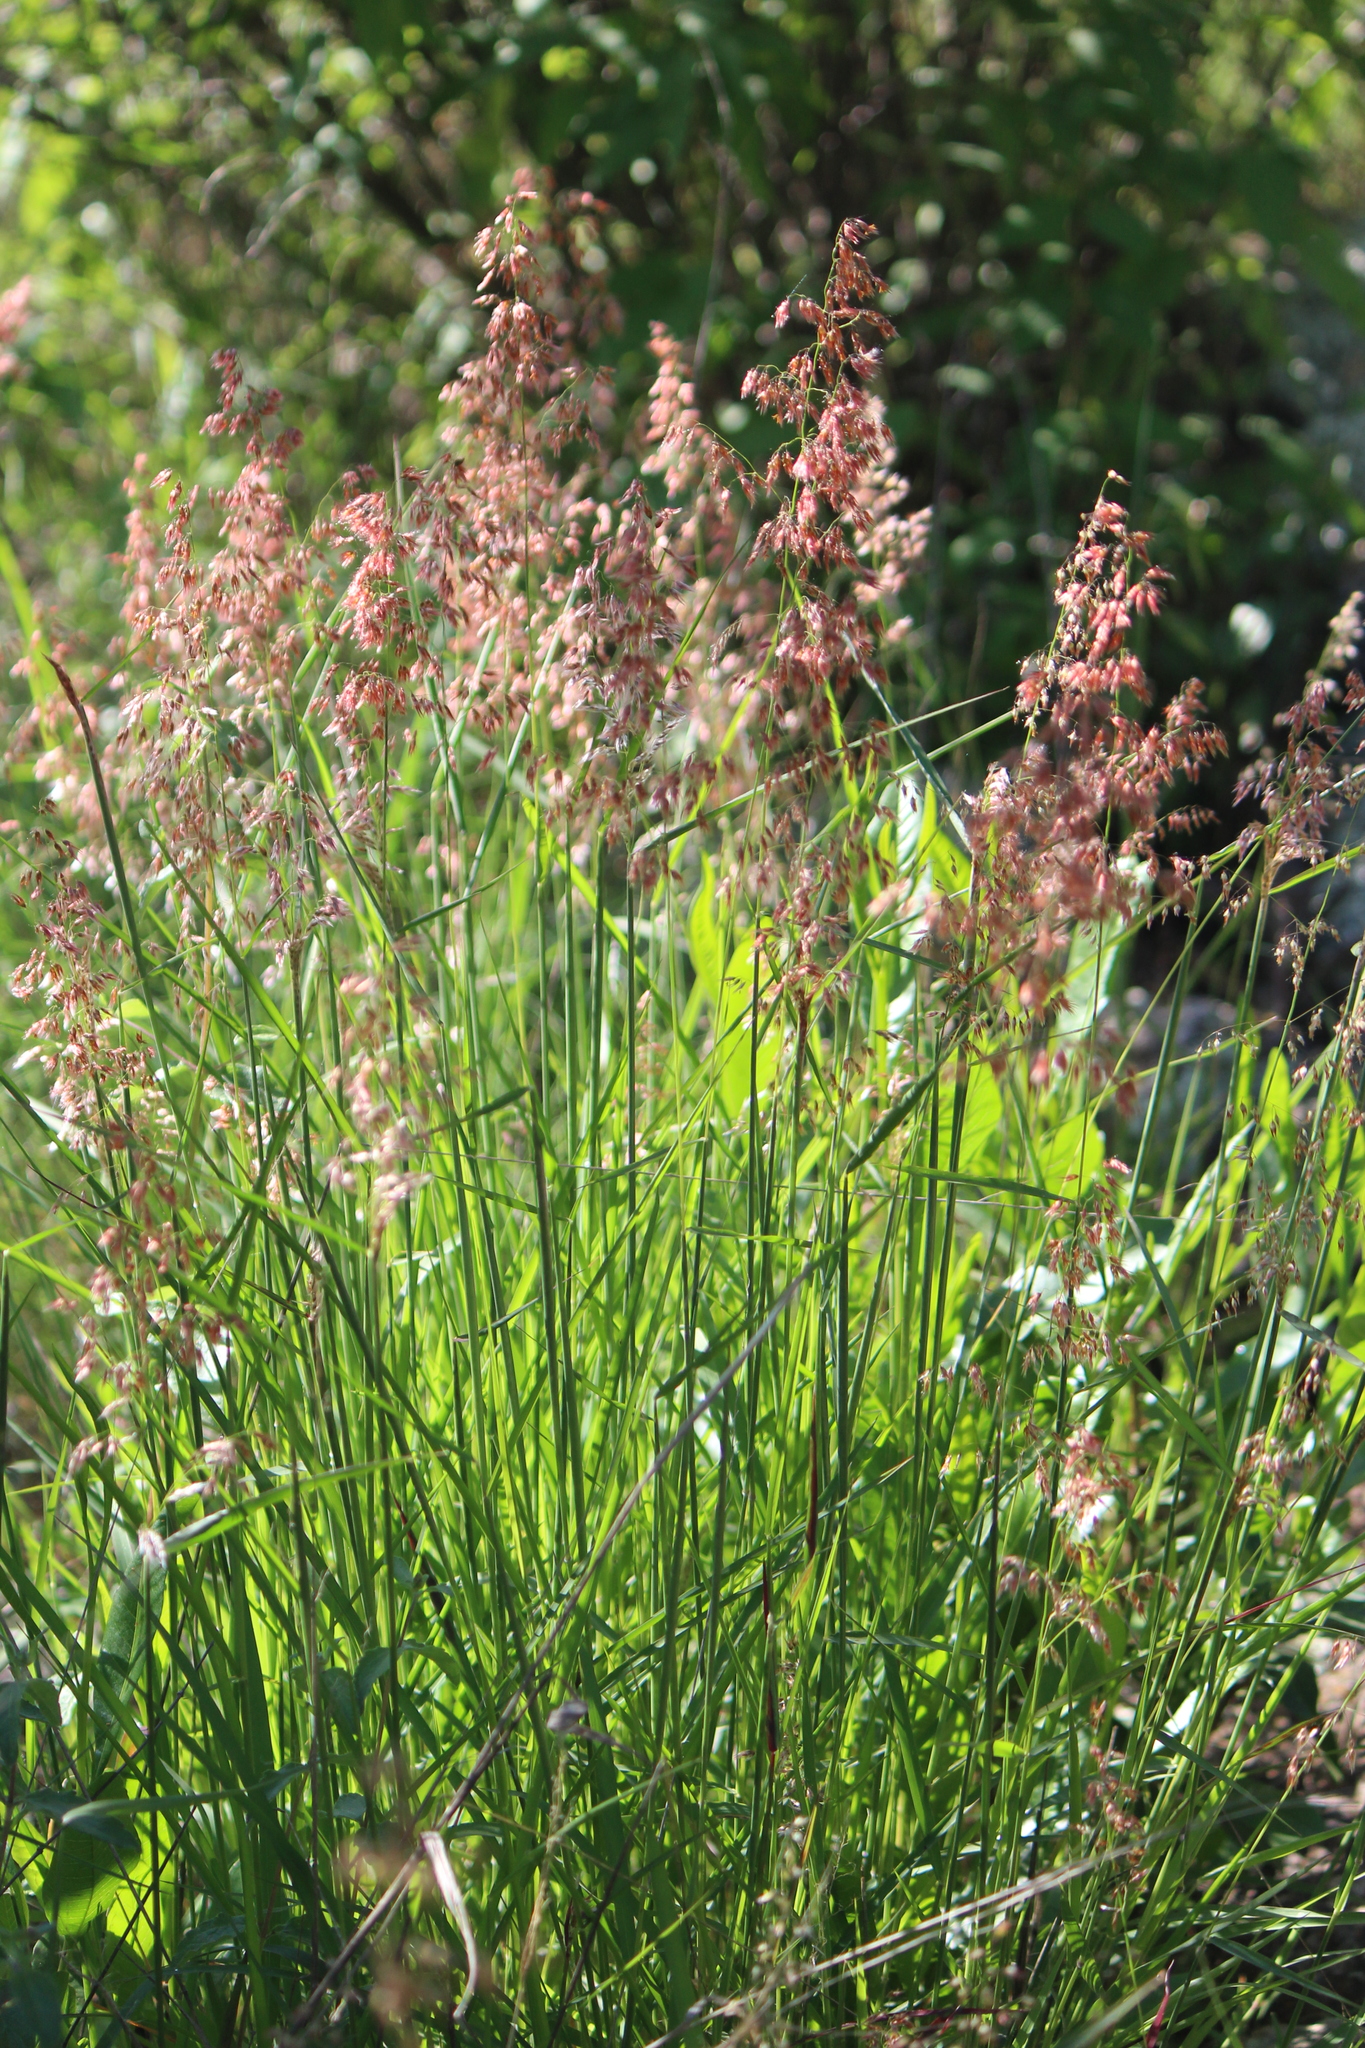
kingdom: Plantae
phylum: Tracheophyta
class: Liliopsida
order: Poales
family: Poaceae
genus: Melinis
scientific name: Melinis repens
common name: Rose natal grass
